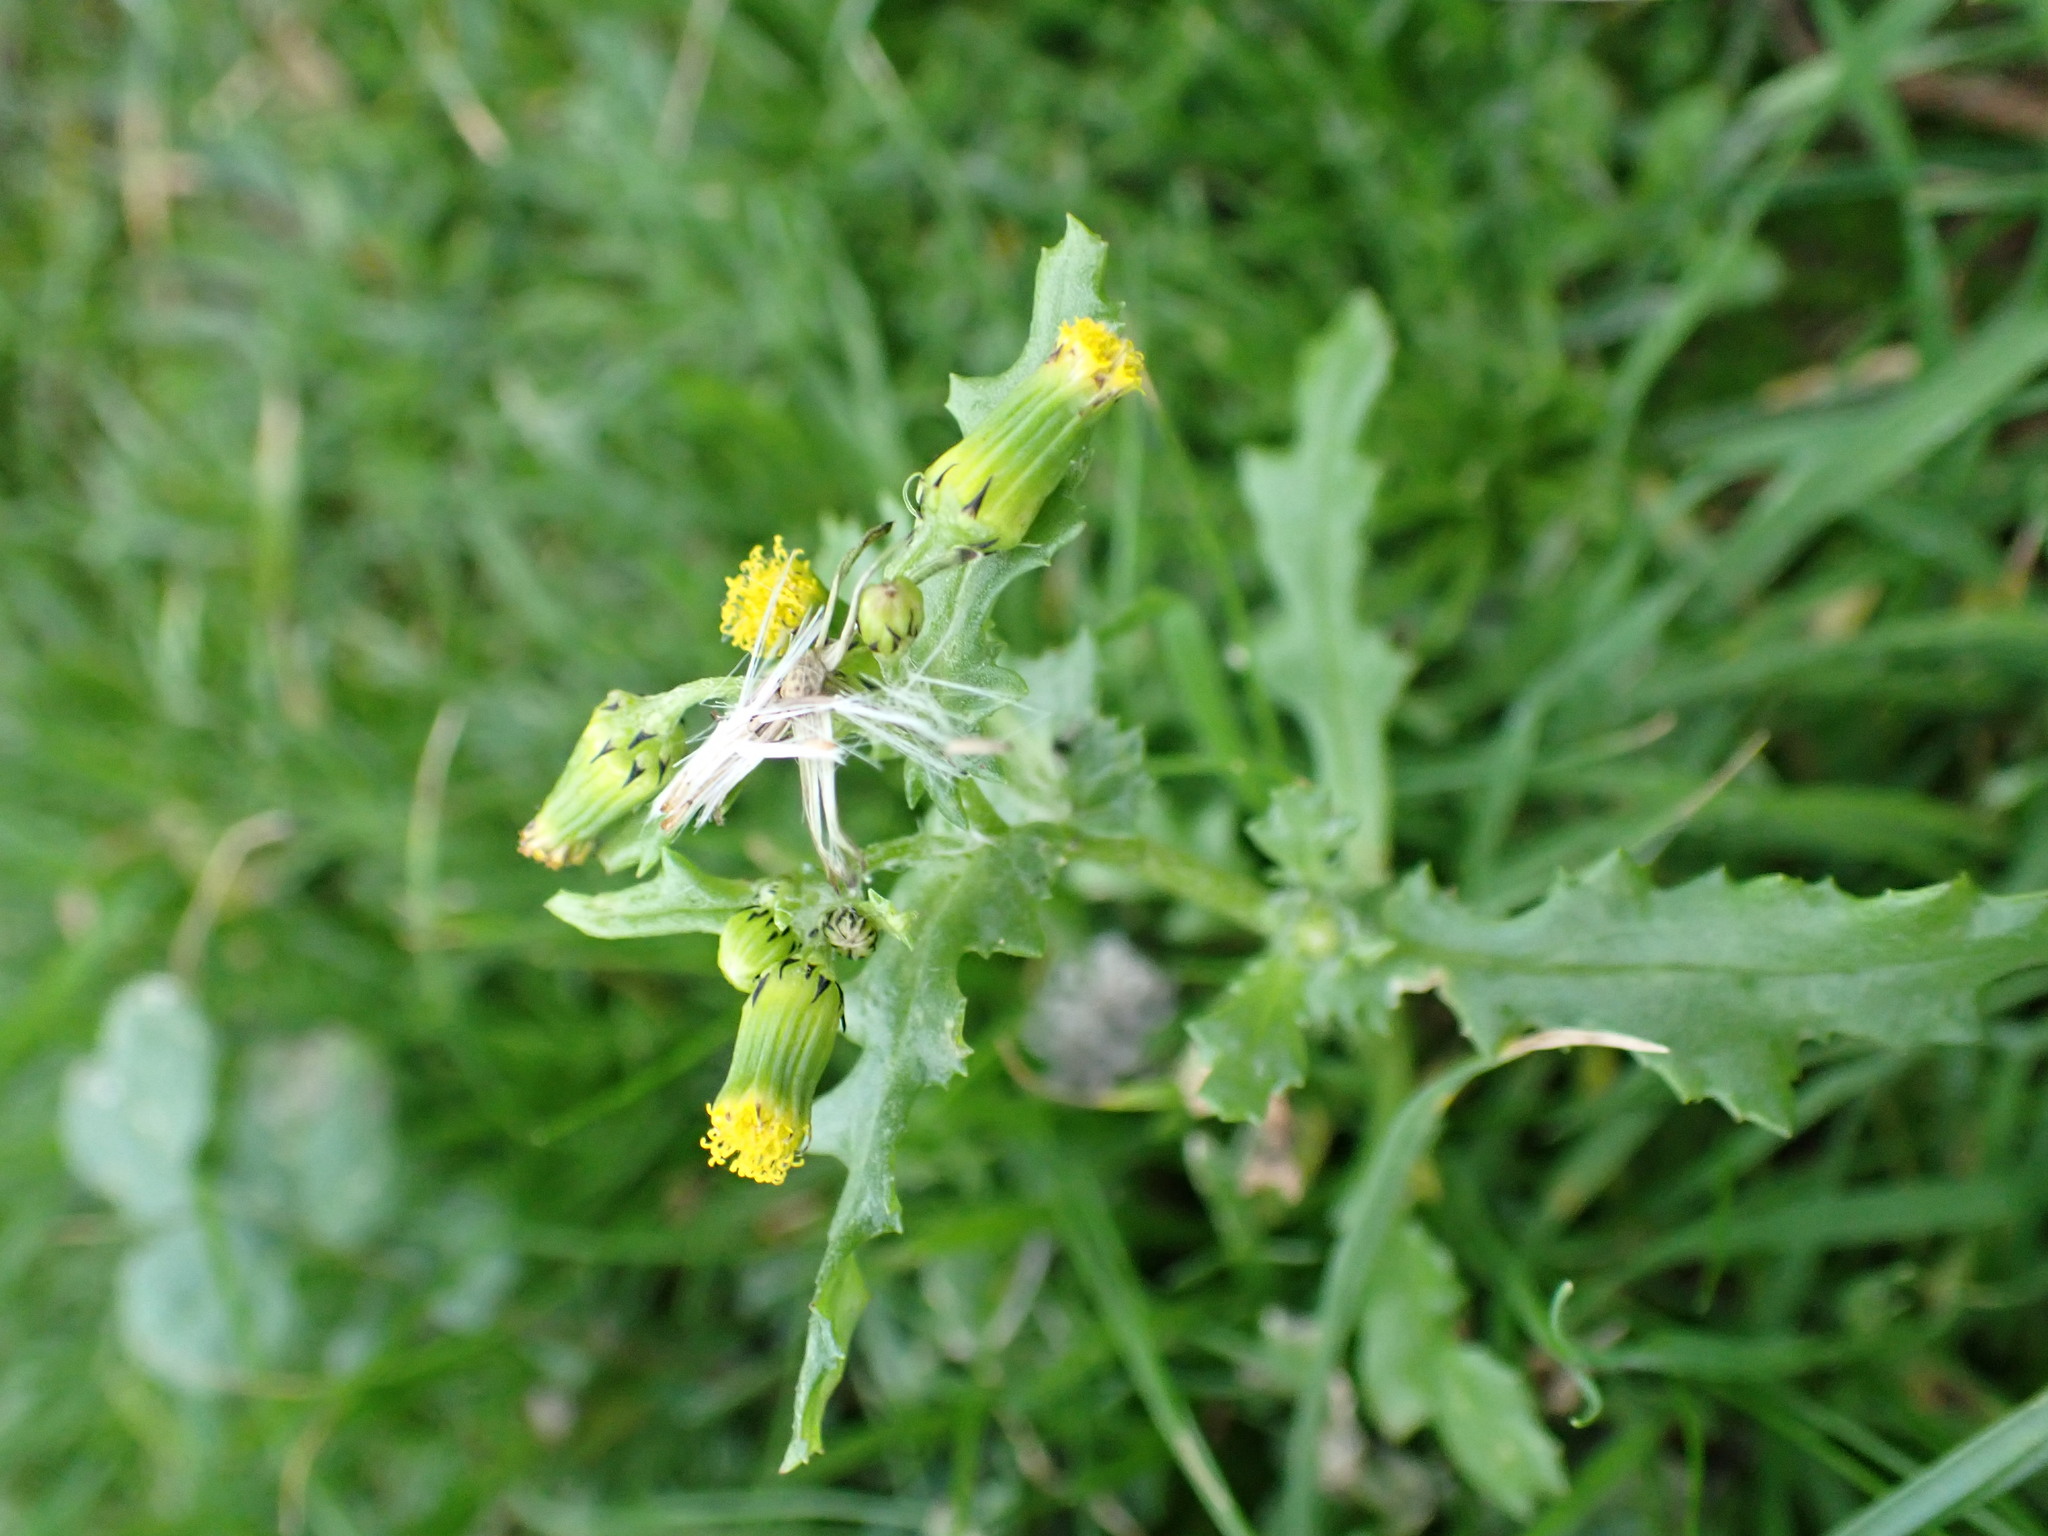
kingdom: Plantae
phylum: Tracheophyta
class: Magnoliopsida
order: Asterales
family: Asteraceae
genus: Senecio
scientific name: Senecio vulgaris
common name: Old-man-in-the-spring
